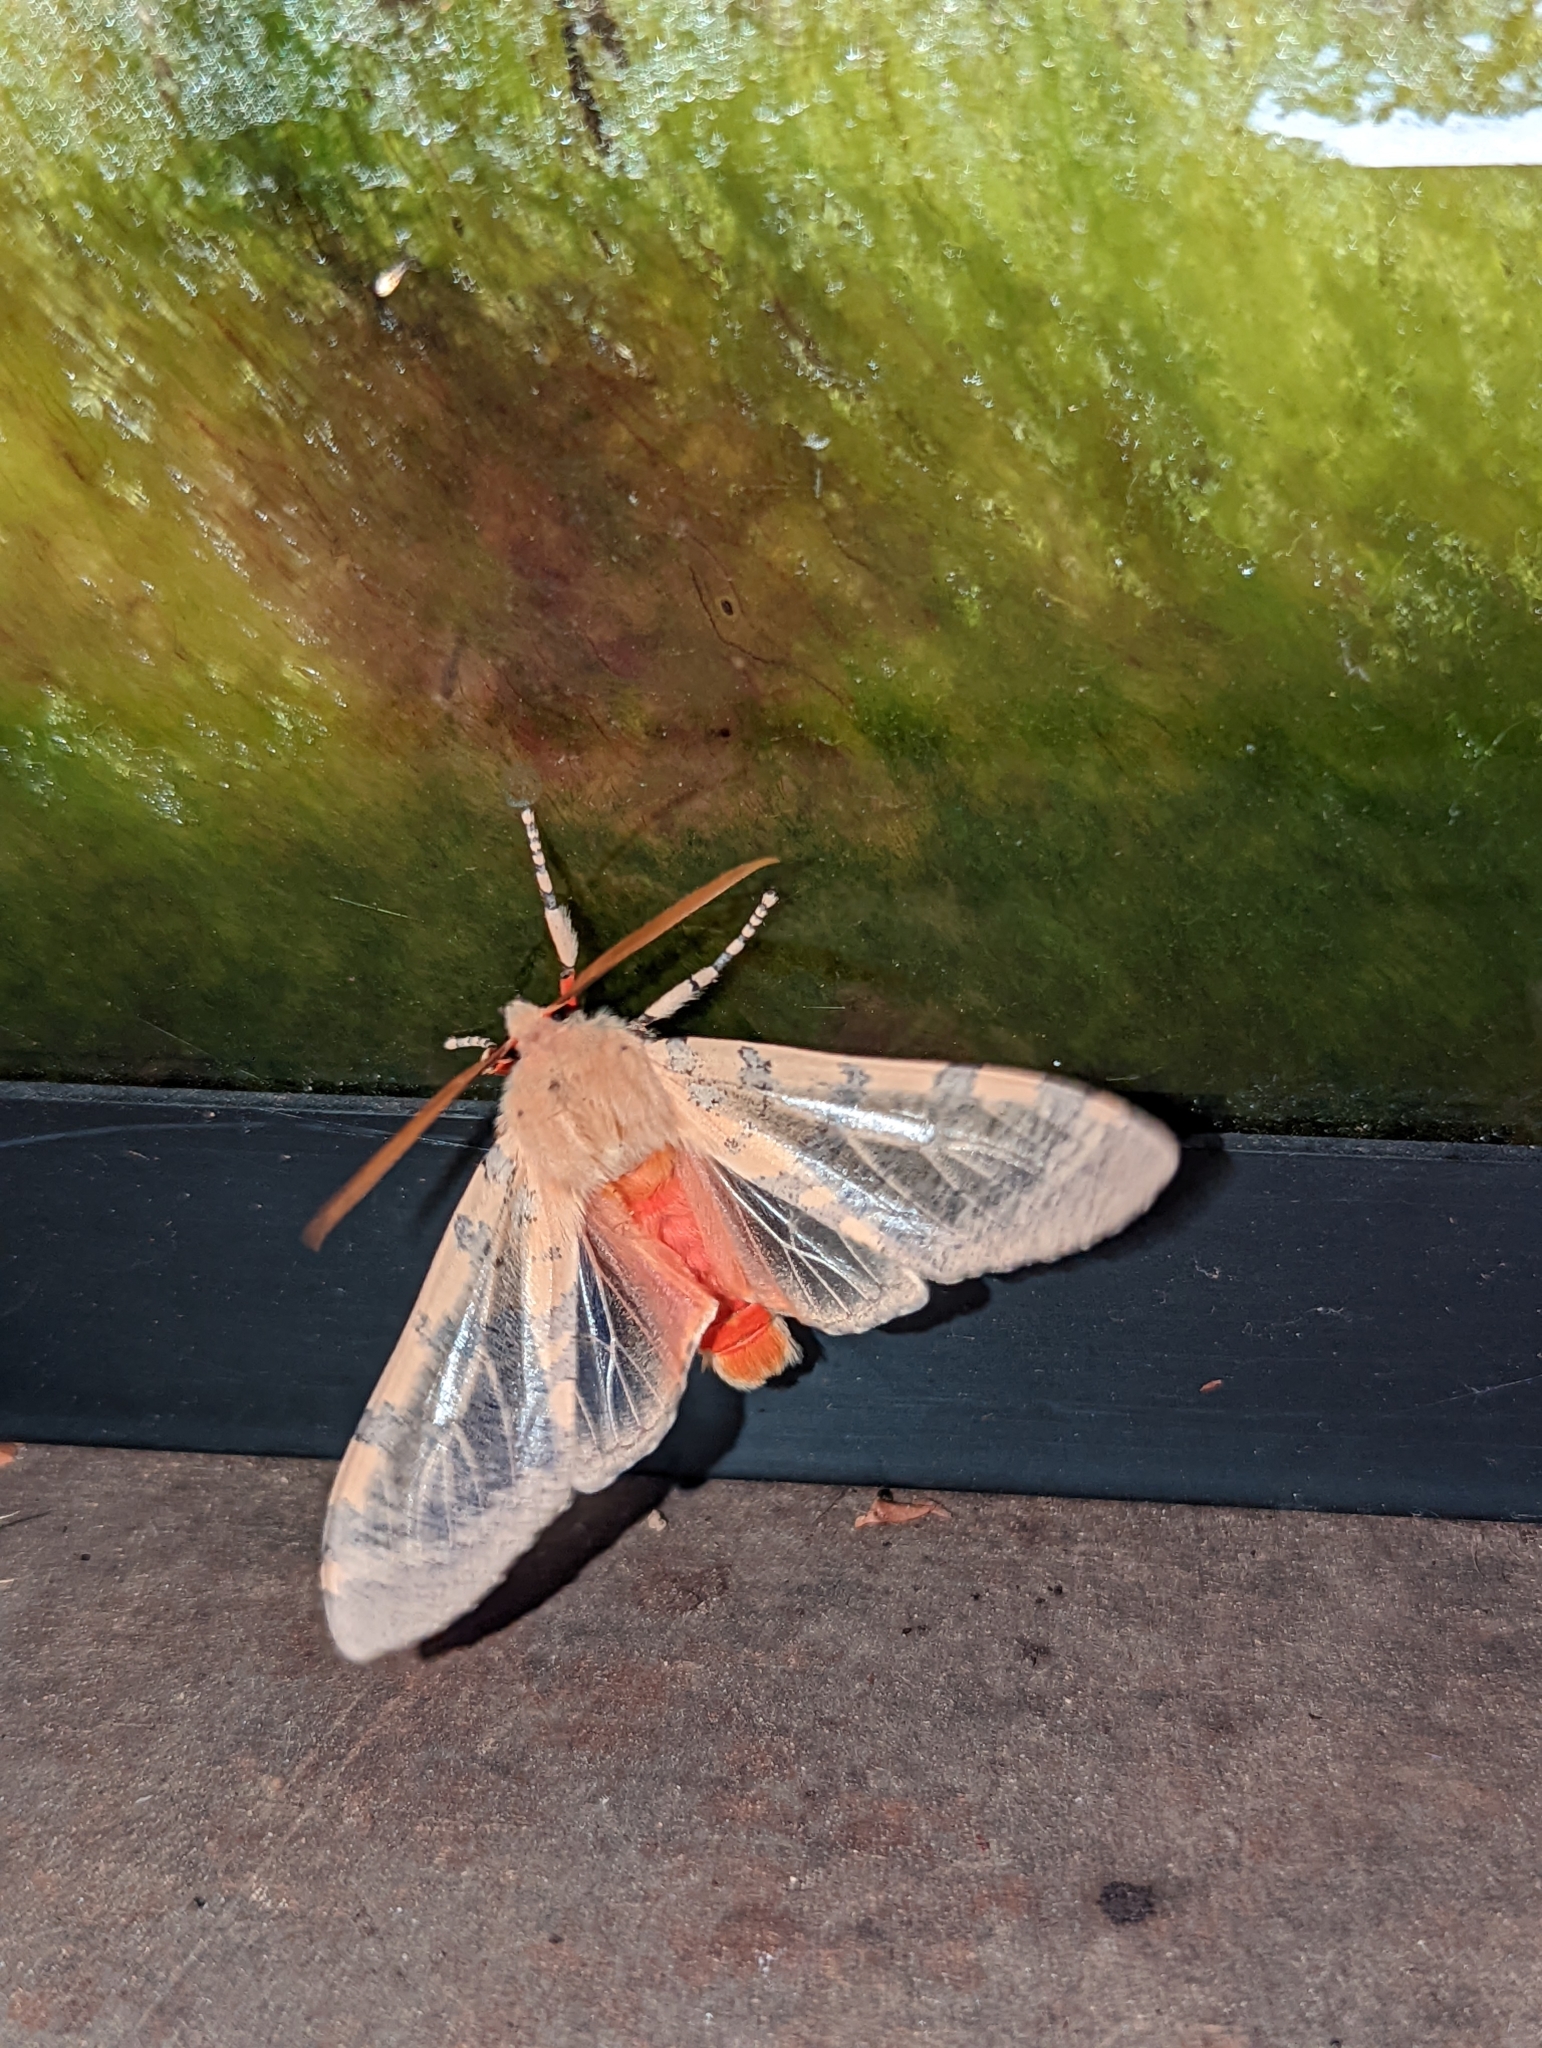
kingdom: Animalia
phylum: Arthropoda
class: Insecta
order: Lepidoptera
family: Erebidae
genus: Hemihyalea
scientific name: Hemihyalea edwardsii
